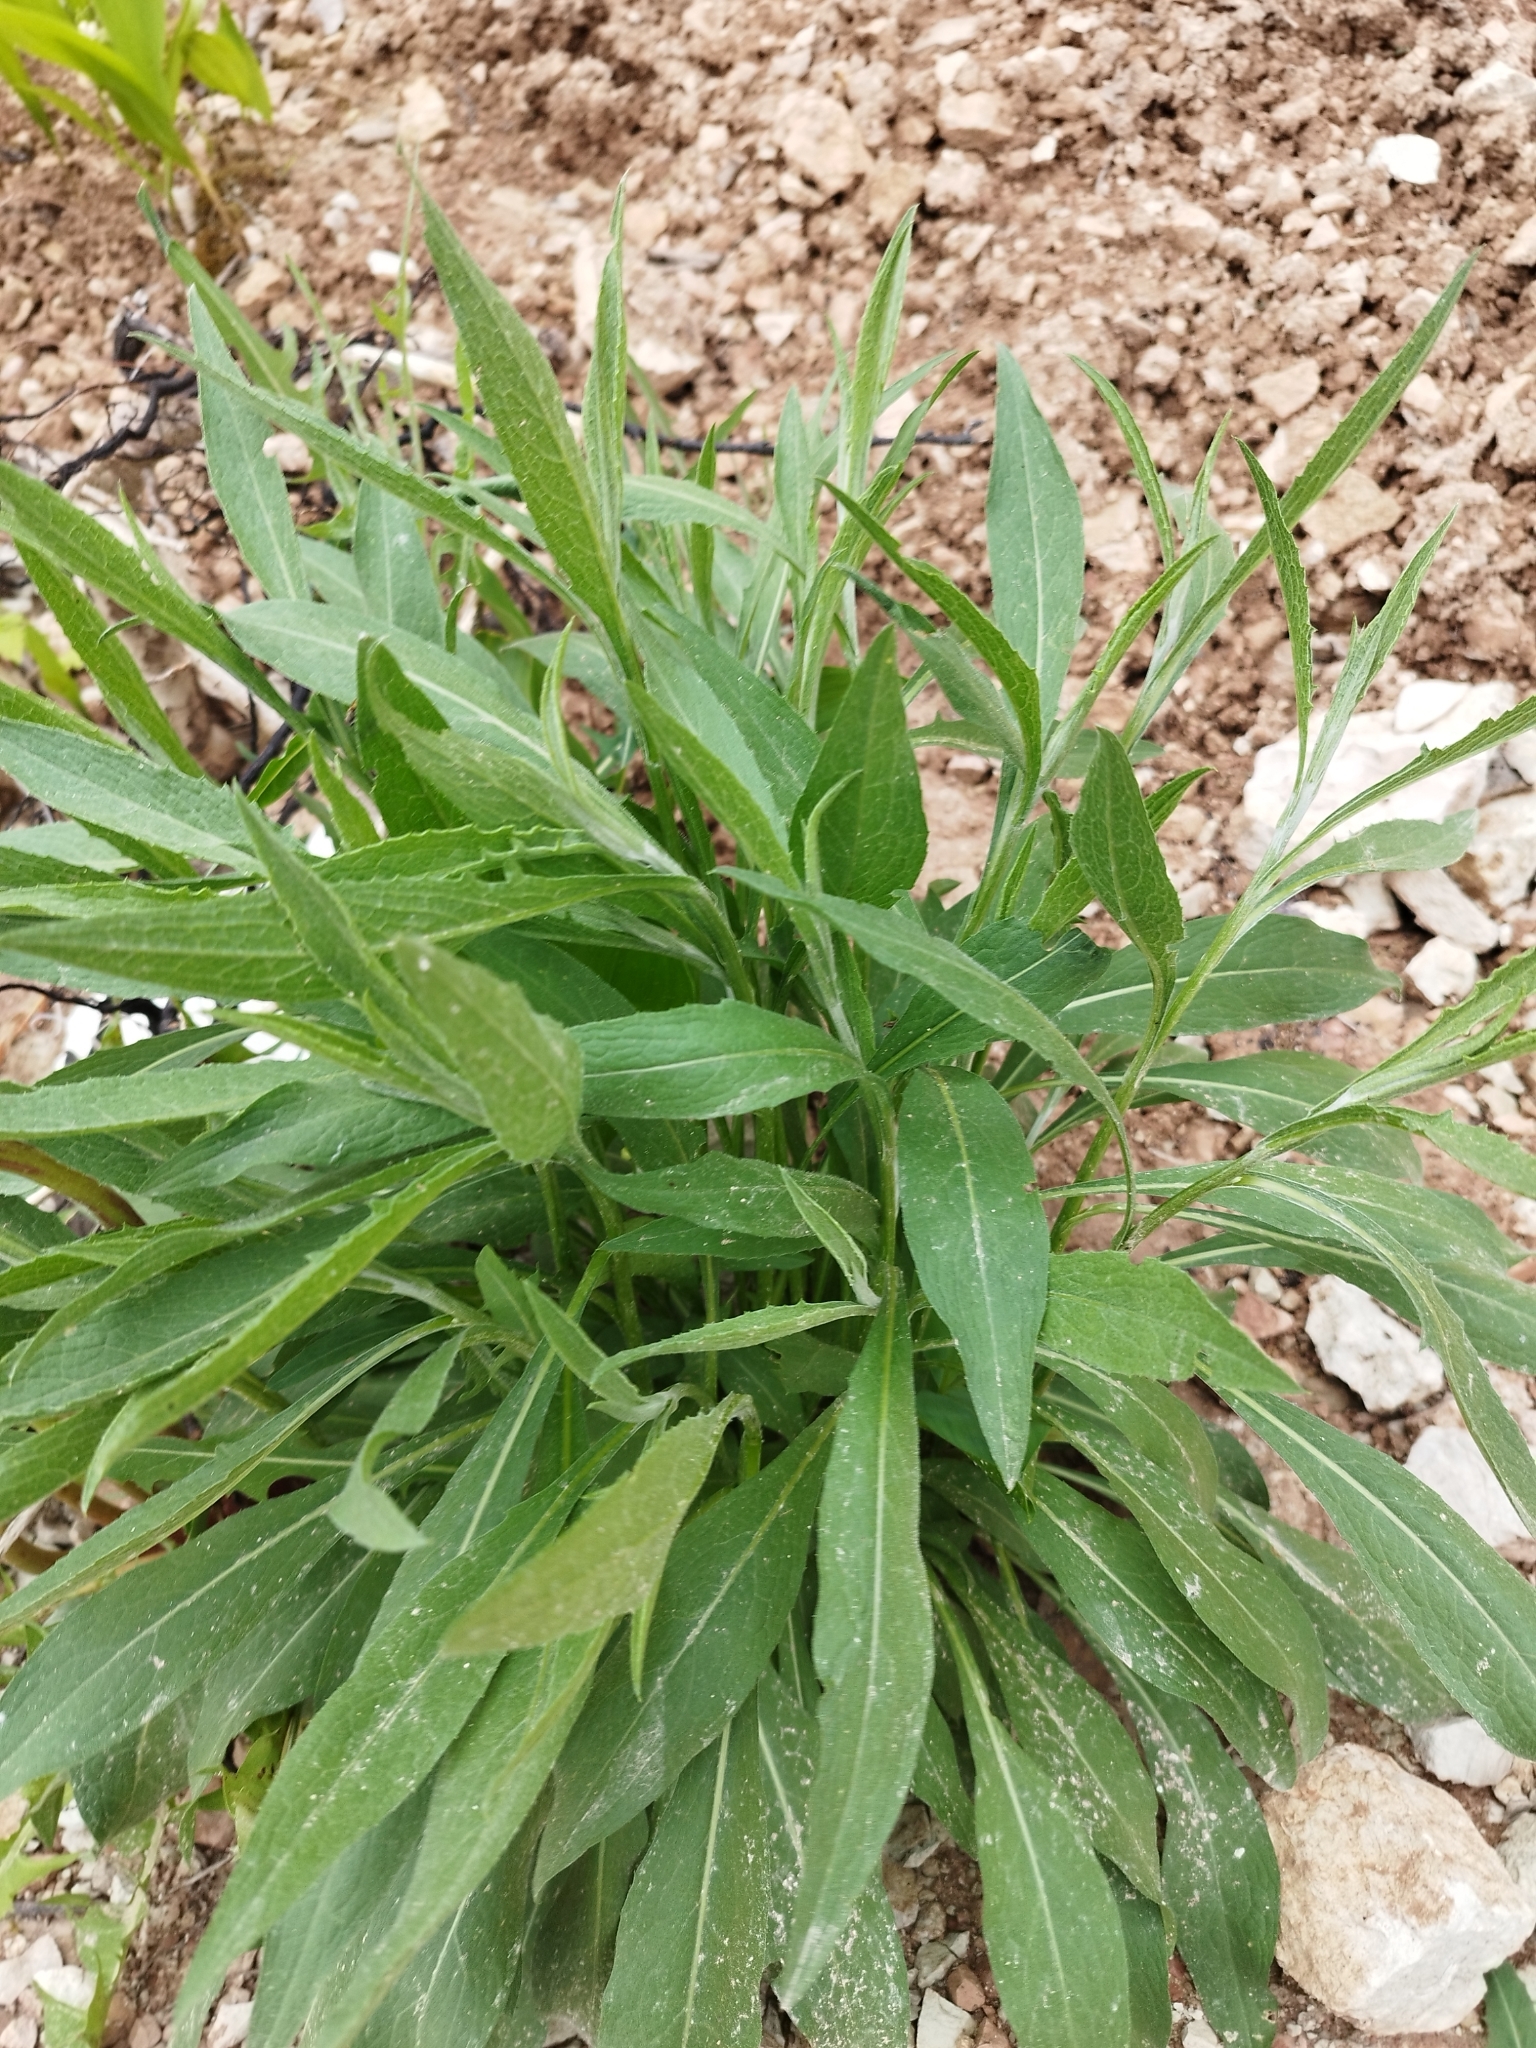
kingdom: Plantae
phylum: Tracheophyta
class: Magnoliopsida
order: Asterales
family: Asteraceae
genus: Centaurea
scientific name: Centaurea jacea
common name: Brown knapweed
